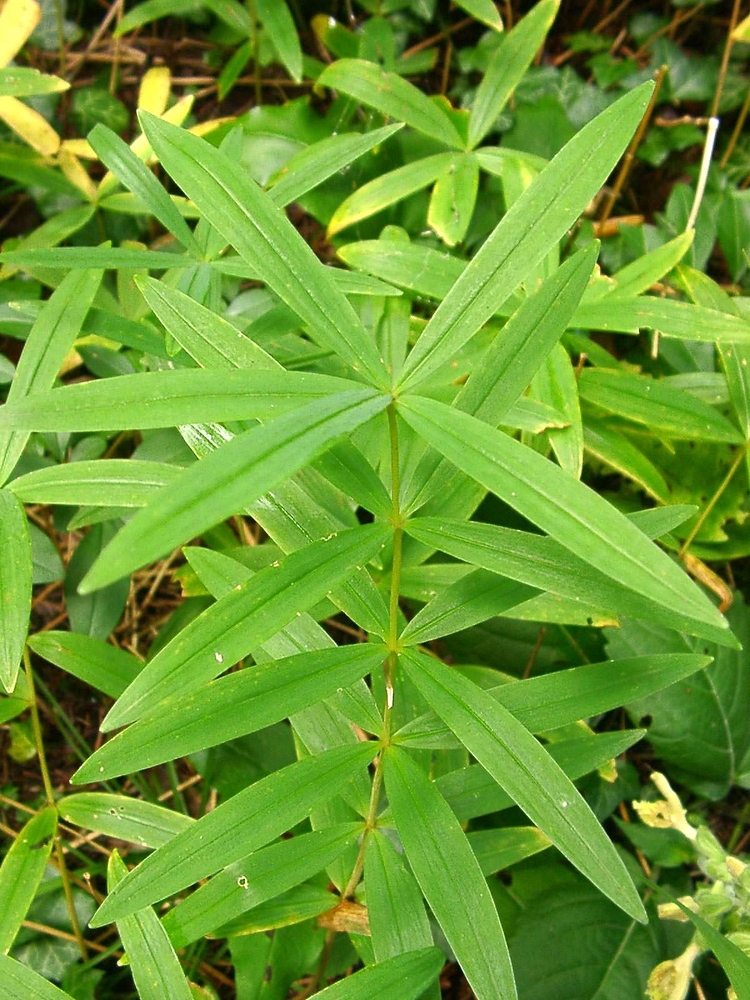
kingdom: Plantae
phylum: Tracheophyta
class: Liliopsida
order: Asparagales
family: Asparagaceae
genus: Polygonatum
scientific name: Polygonatum verticillatum
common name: Whorled solomon's-seal
